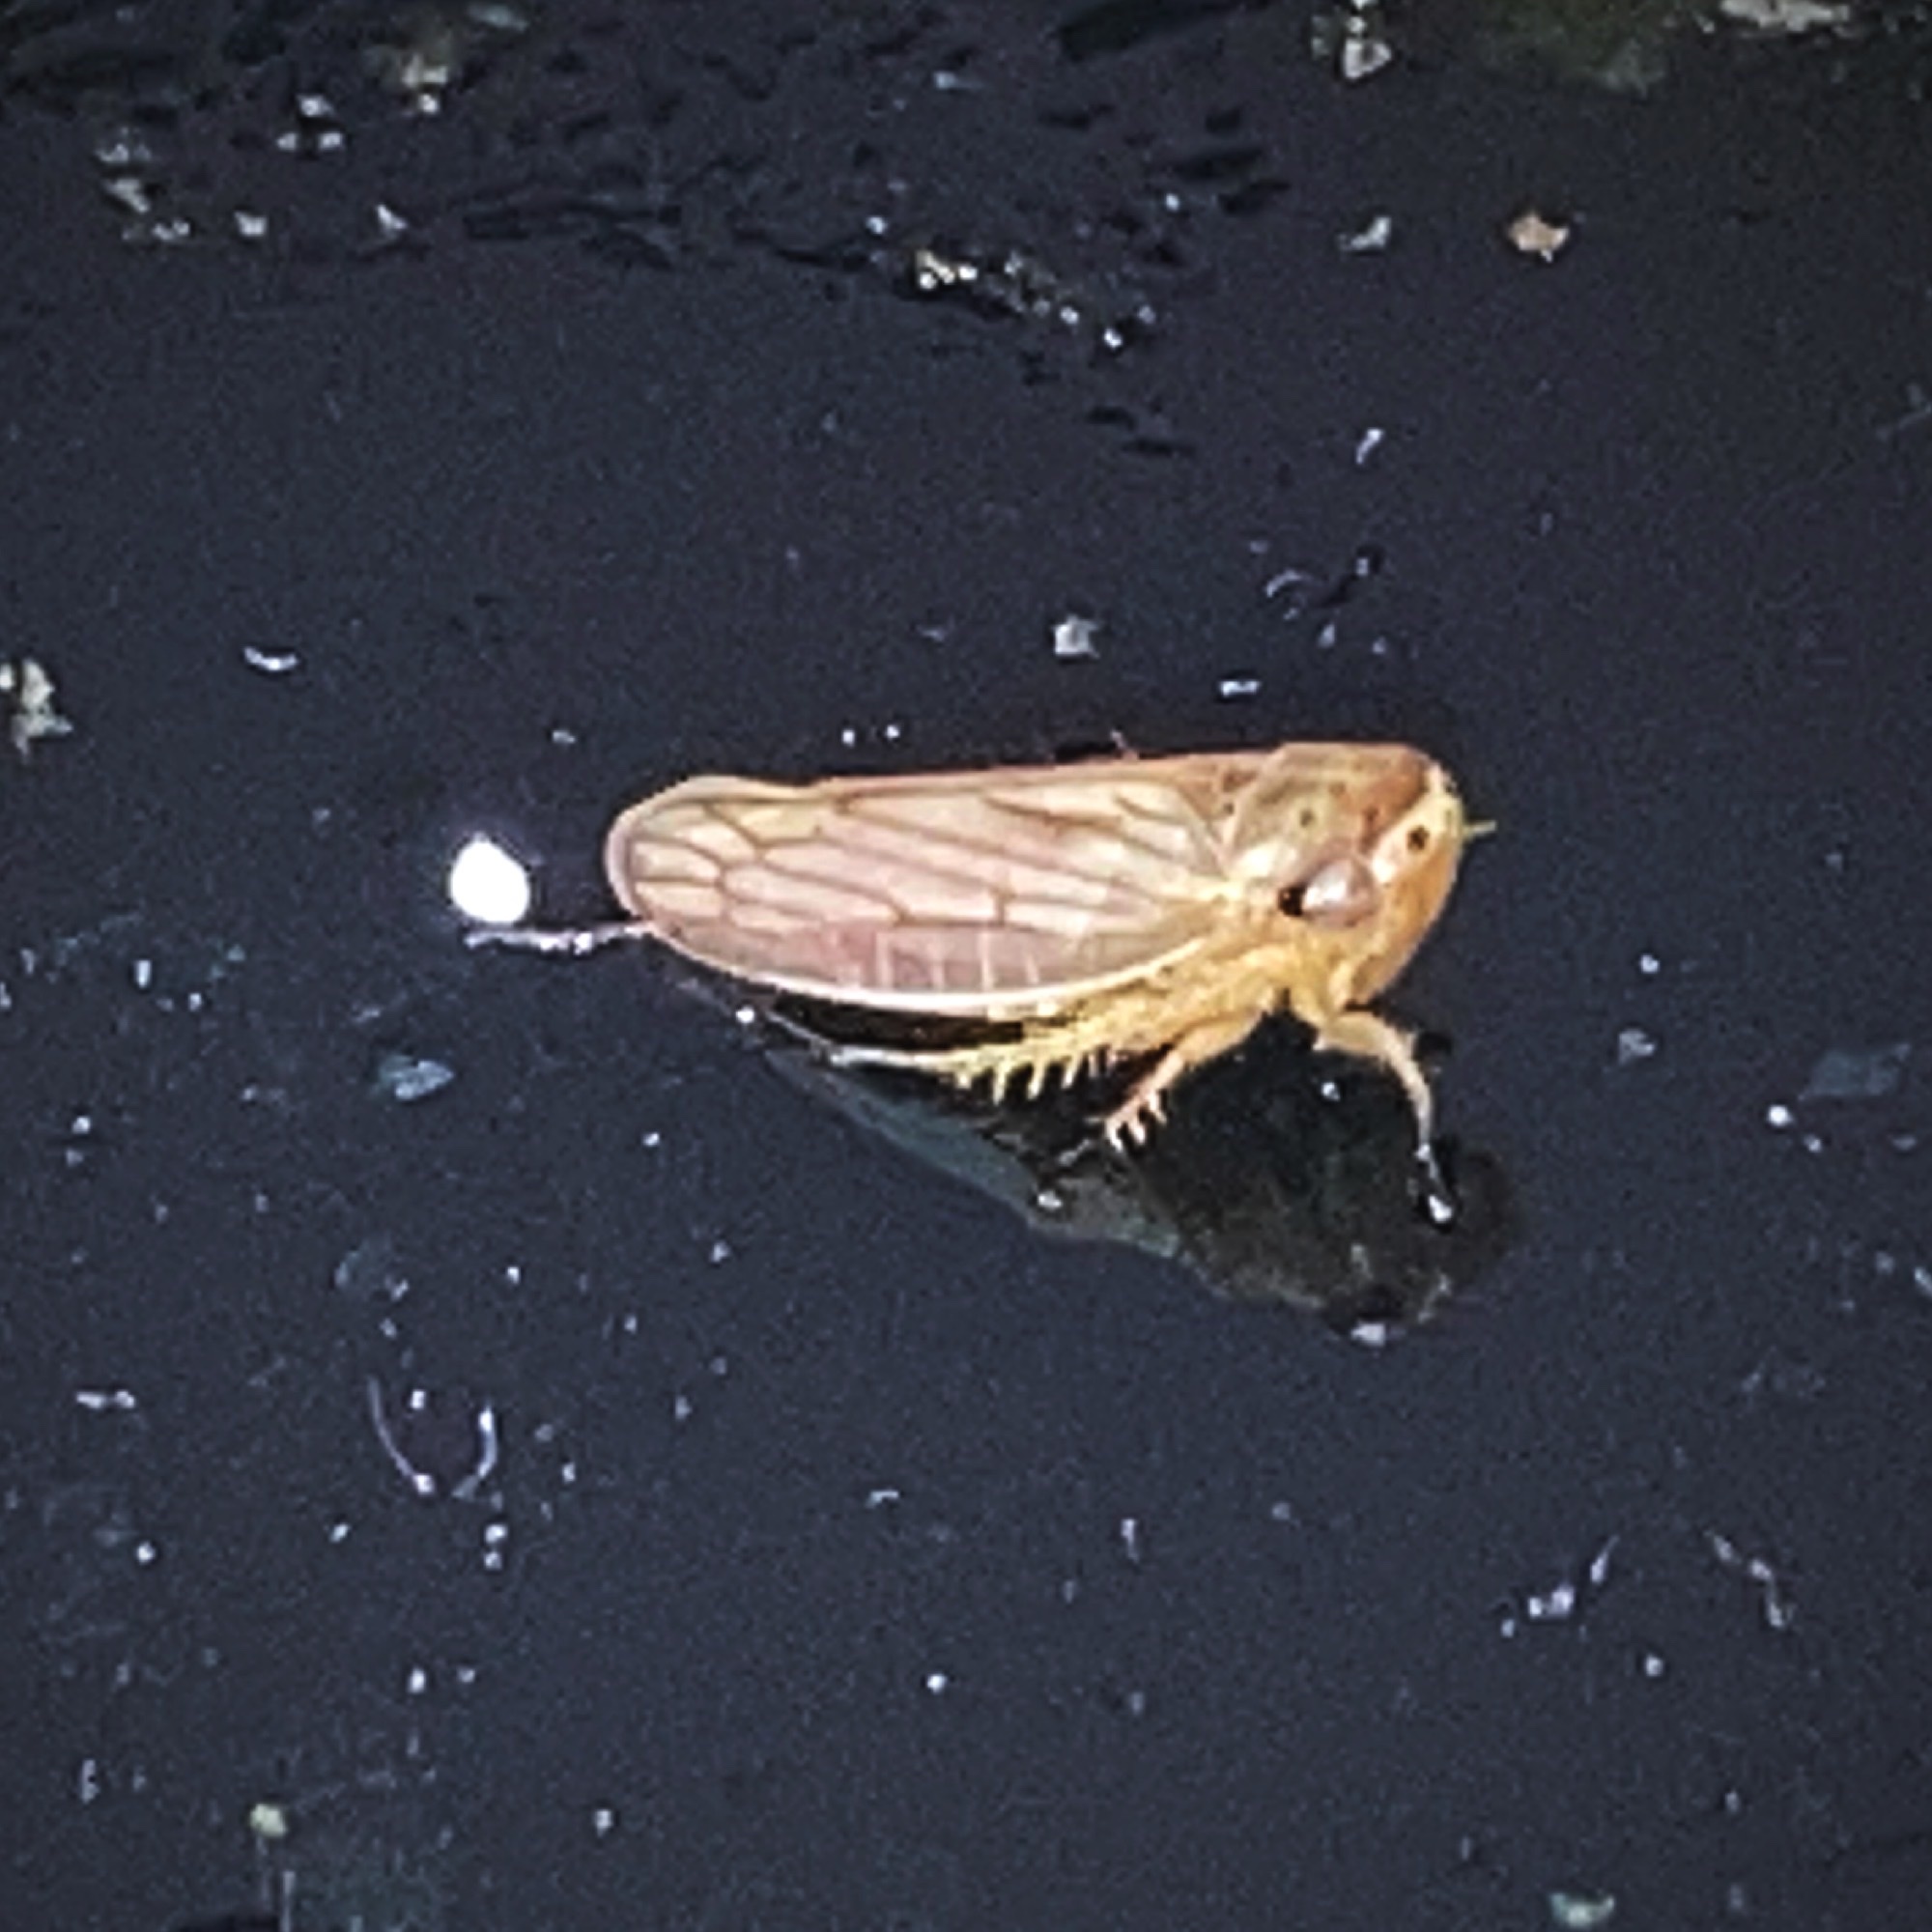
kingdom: Animalia
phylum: Arthropoda
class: Insecta
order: Hemiptera
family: Cicadellidae
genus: Exitianus
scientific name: Exitianus exitiosus
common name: Gray lawn leafhopper
